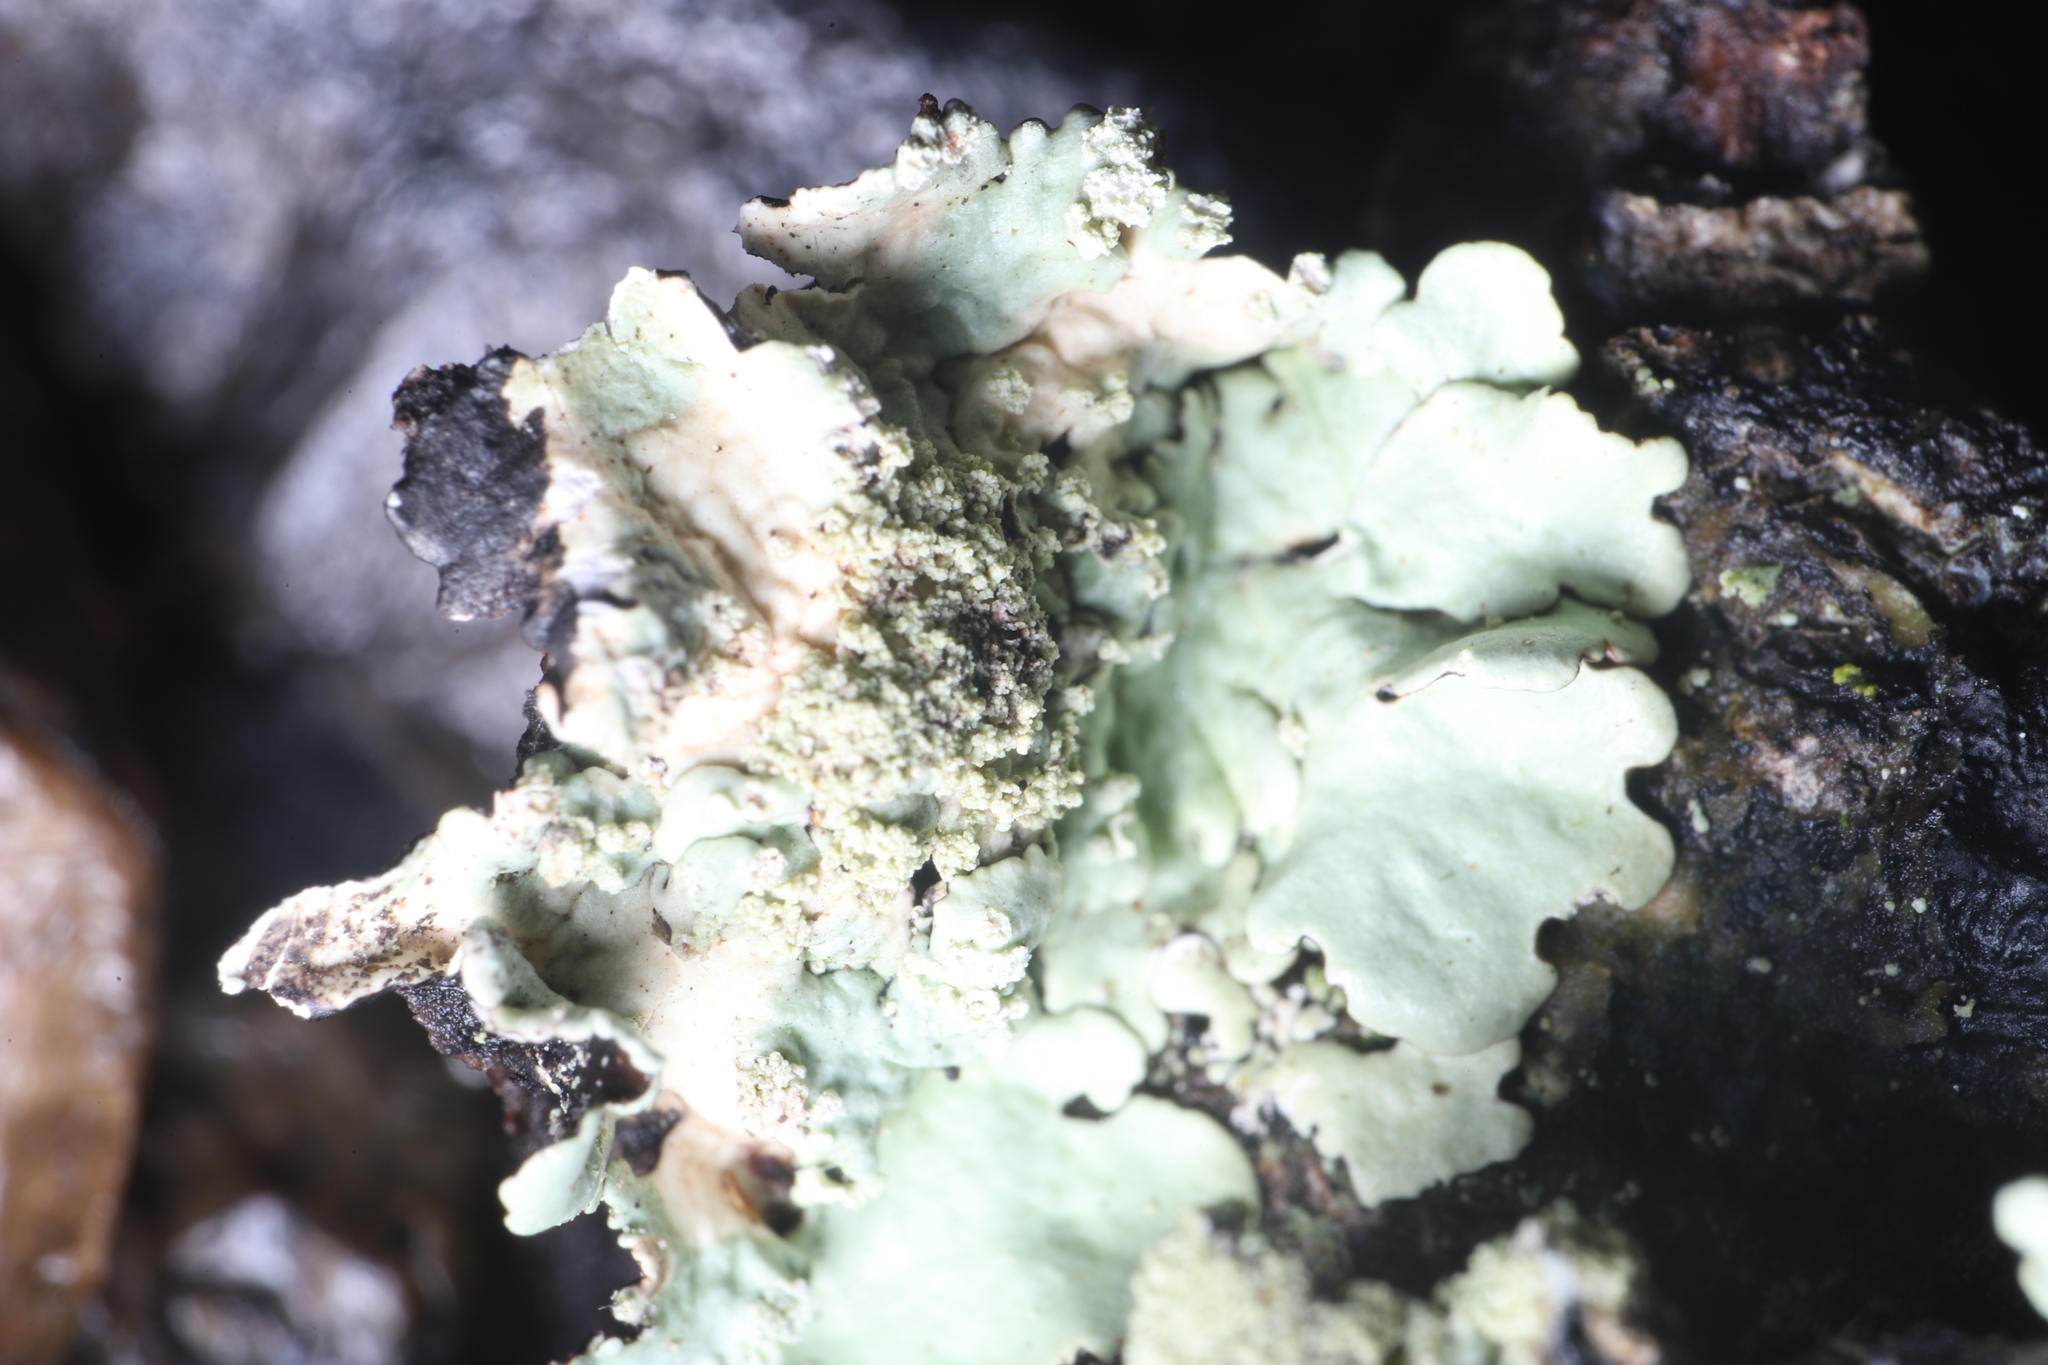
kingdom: Fungi
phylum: Ascomycota
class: Lecanoromycetes
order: Lecanorales
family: Parmeliaceae
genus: Flavoparmelia
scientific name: Flavoparmelia caperata
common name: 40-mile per hour lichen
